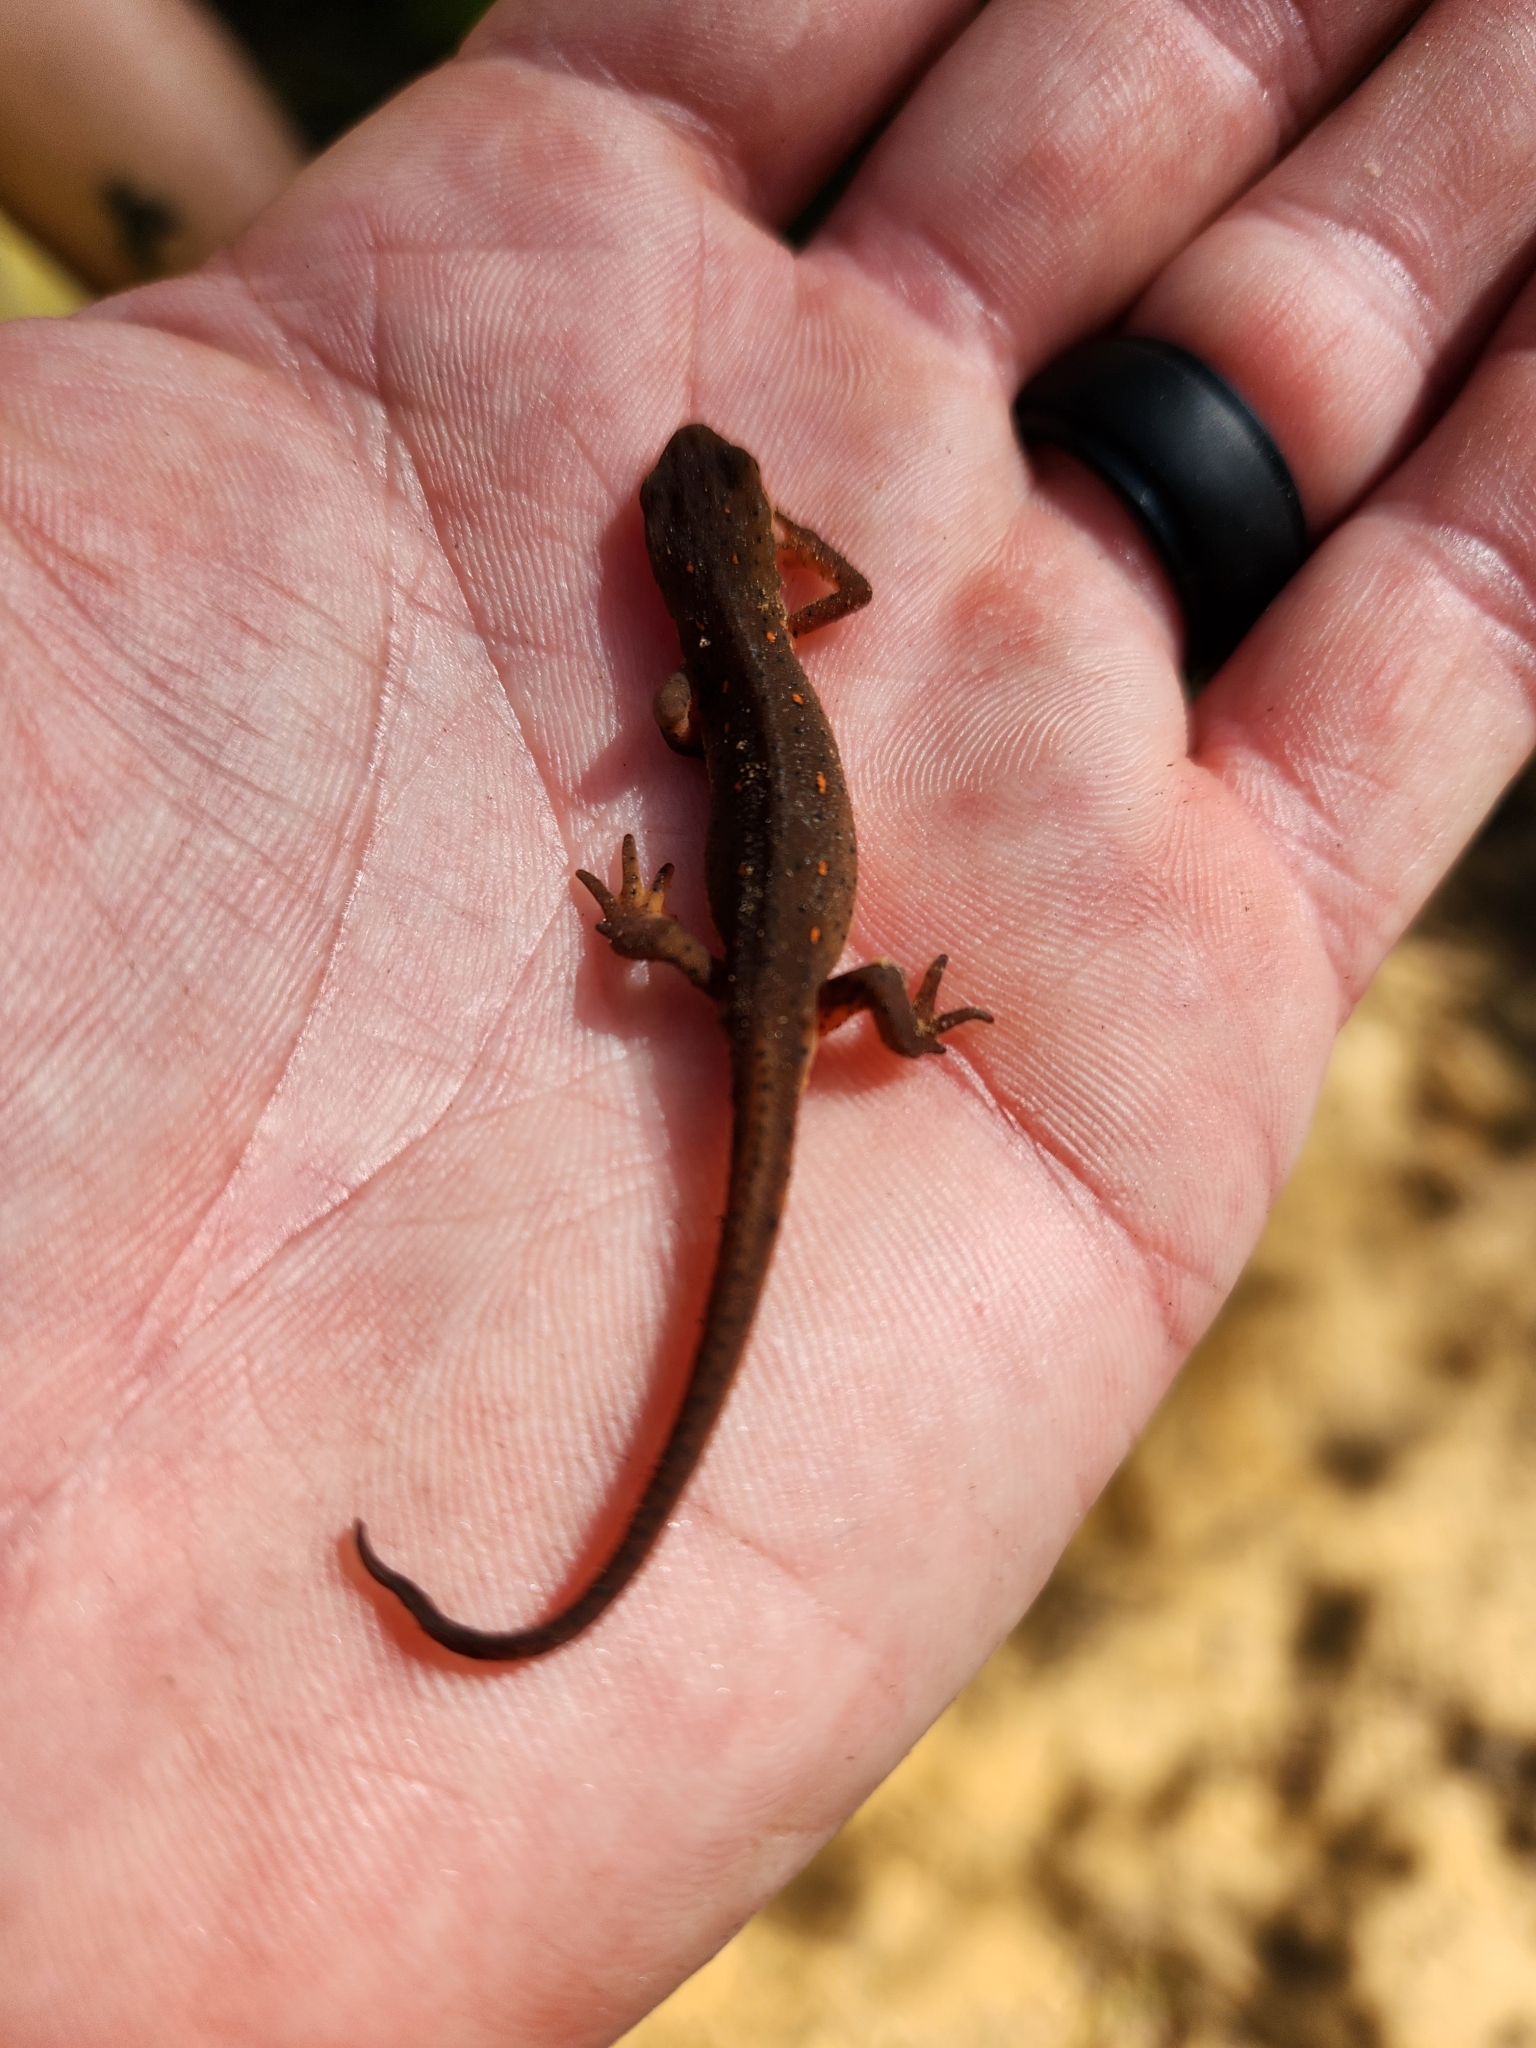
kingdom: Animalia
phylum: Chordata
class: Amphibia
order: Caudata
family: Salamandridae
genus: Notophthalmus
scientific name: Notophthalmus viridescens
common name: Eastern newt
